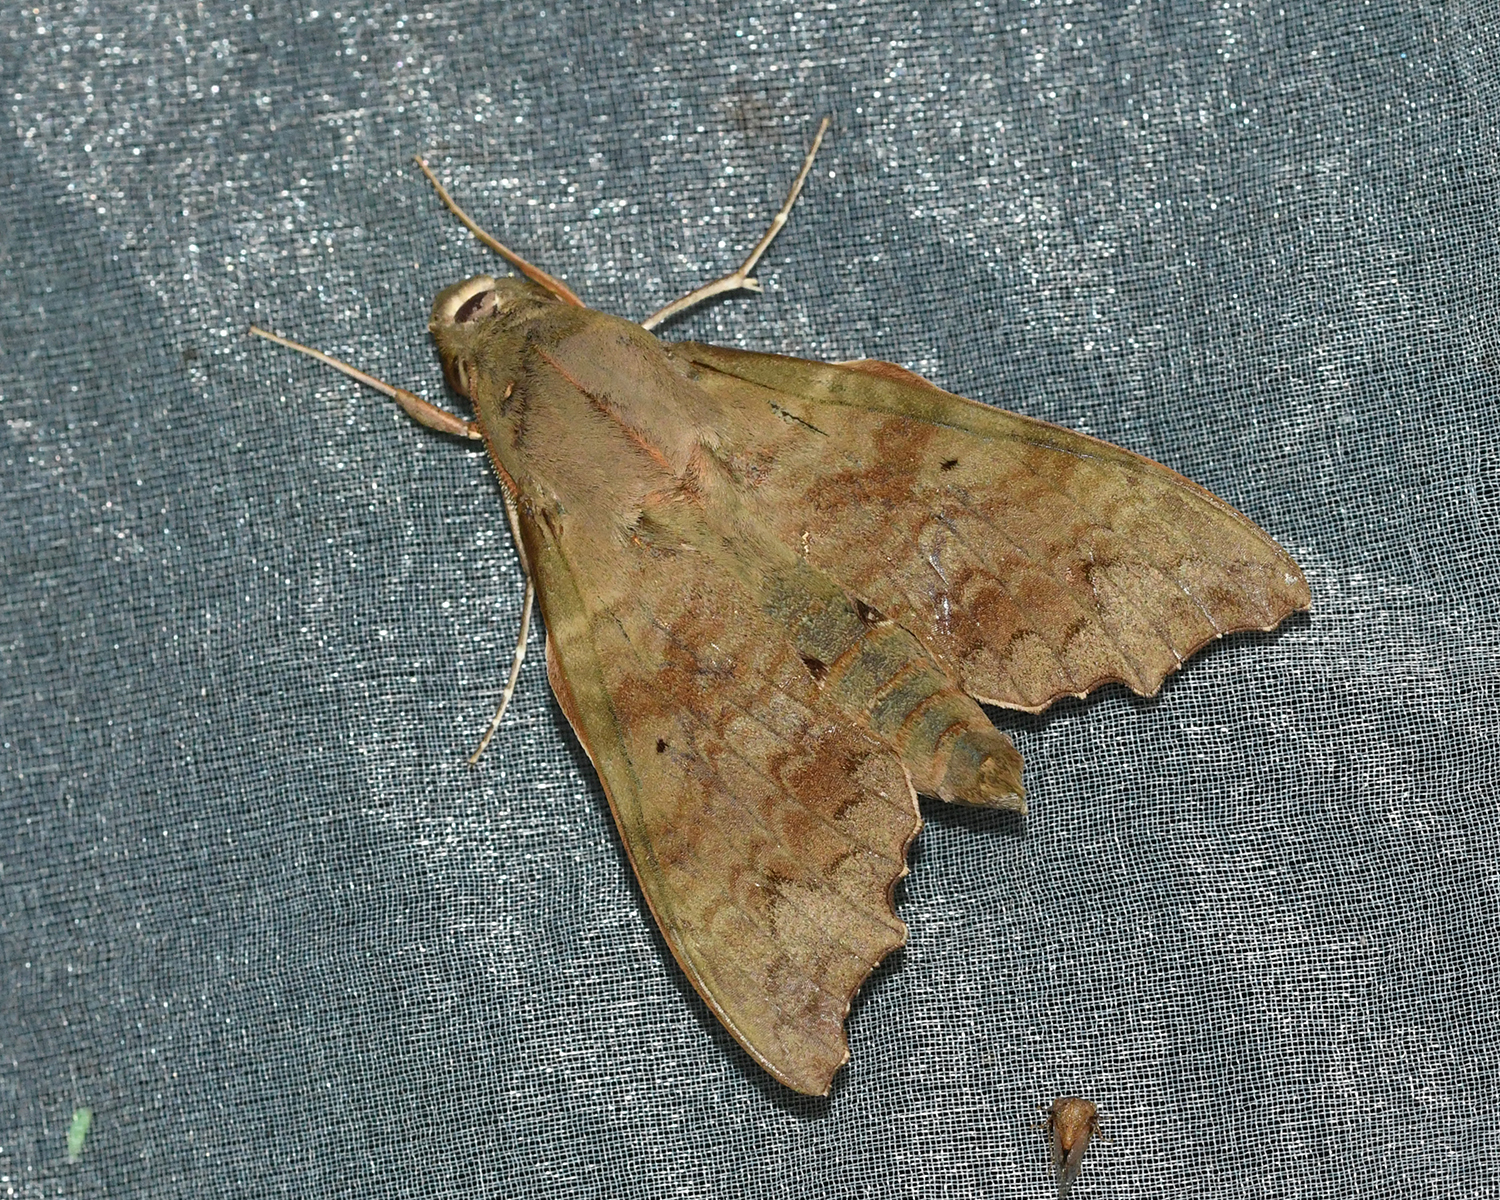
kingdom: Animalia
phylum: Arthropoda
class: Insecta
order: Lepidoptera
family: Sphingidae
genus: Aleuron
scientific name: Aleuron chloroptera
